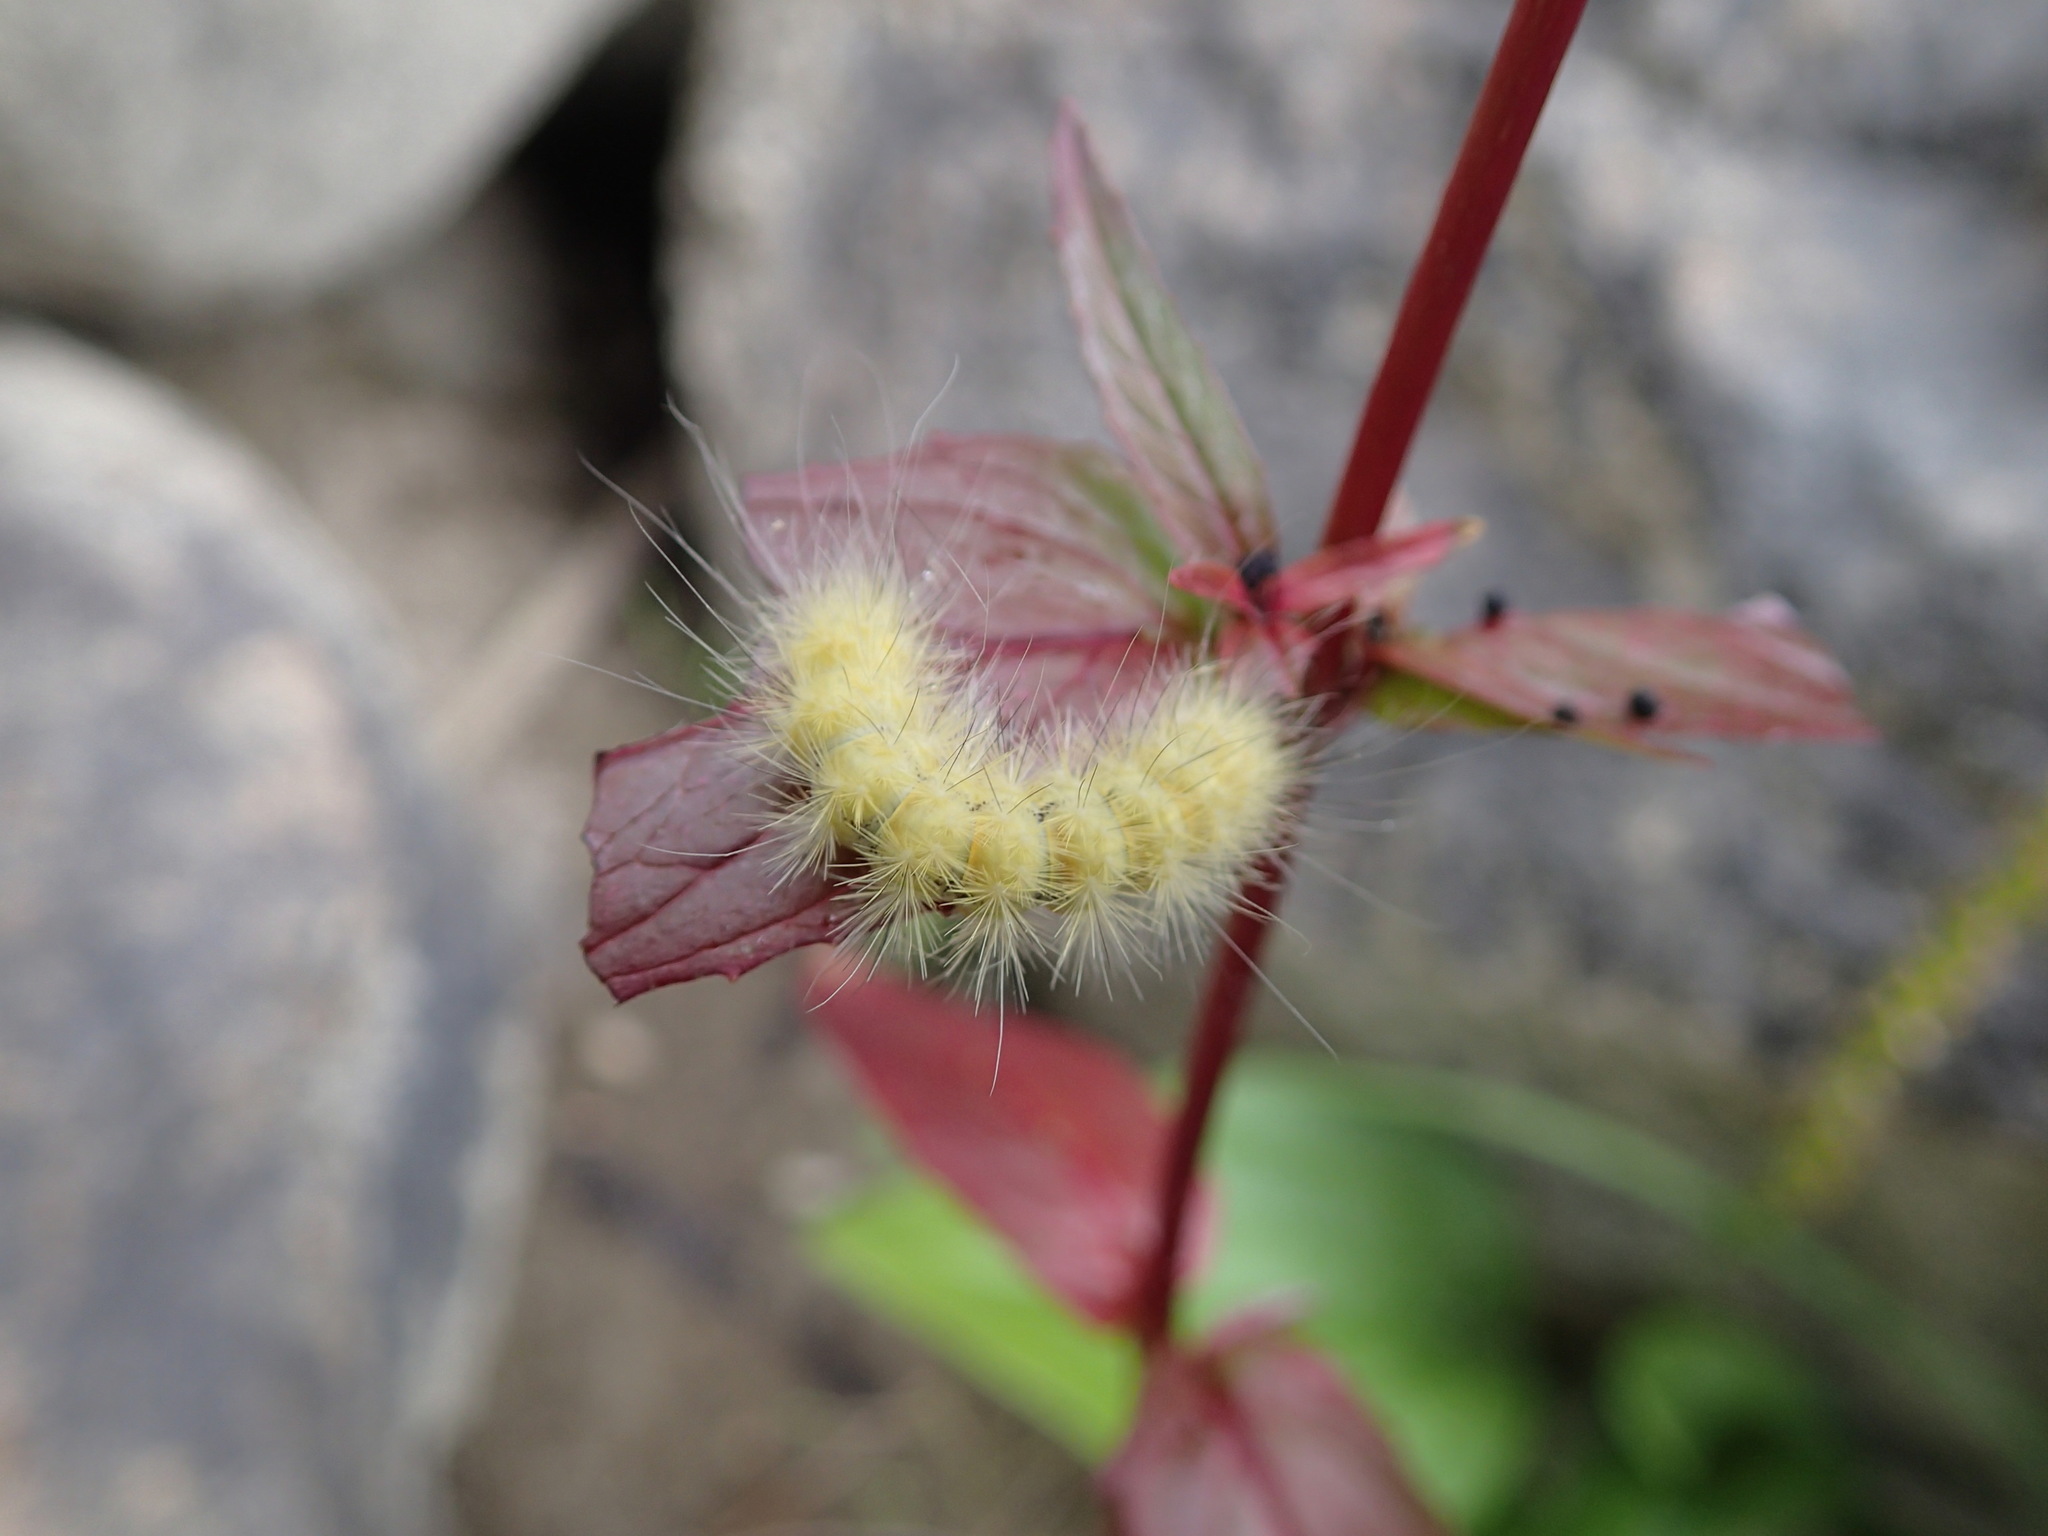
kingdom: Animalia
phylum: Arthropoda
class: Insecta
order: Lepidoptera
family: Erebidae
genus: Spilosoma
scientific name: Spilosoma virginica
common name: Virginia tiger moth
